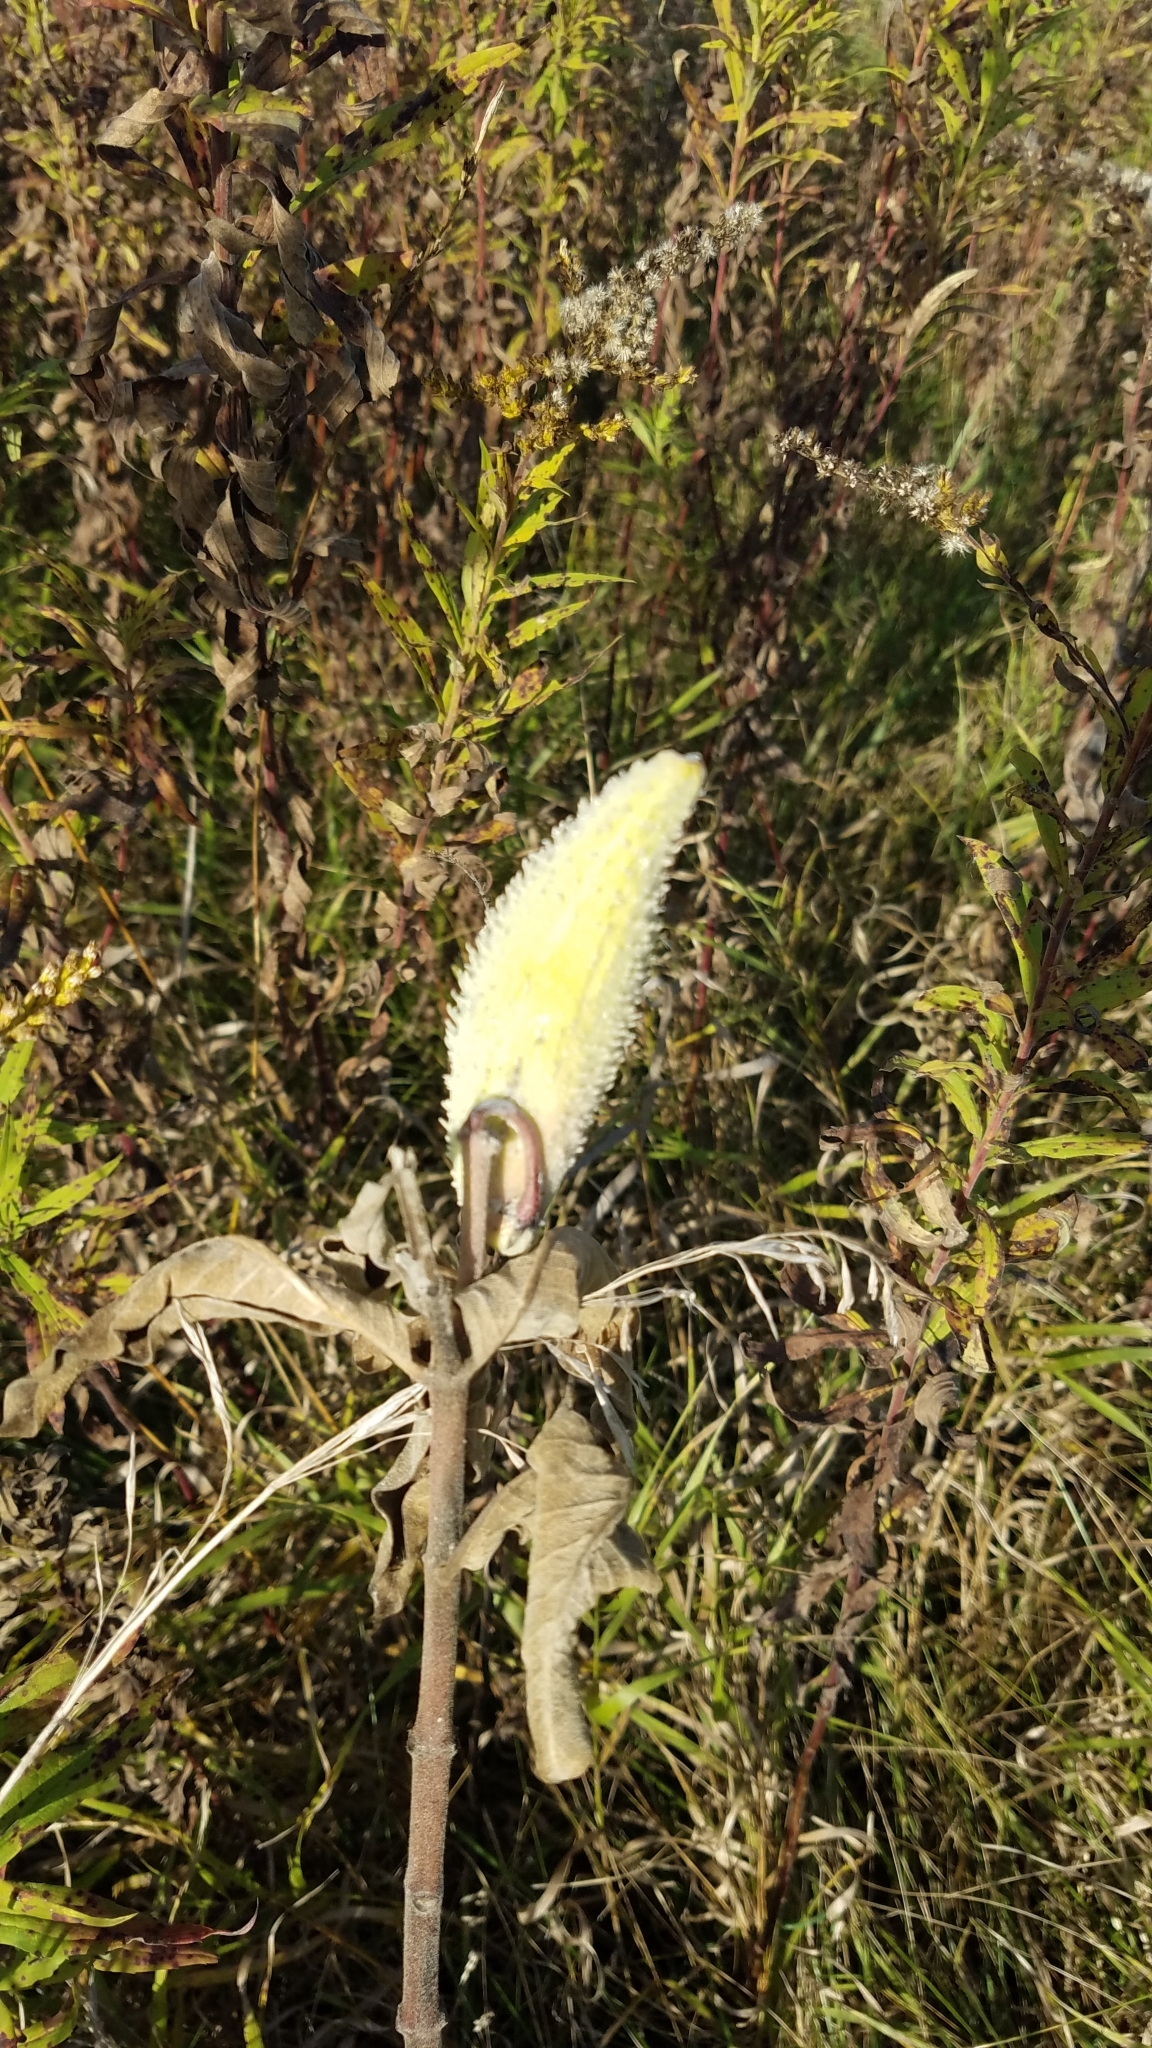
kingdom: Plantae
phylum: Tracheophyta
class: Magnoliopsida
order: Gentianales
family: Apocynaceae
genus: Asclepias
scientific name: Asclepias syriaca
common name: Common milkweed
